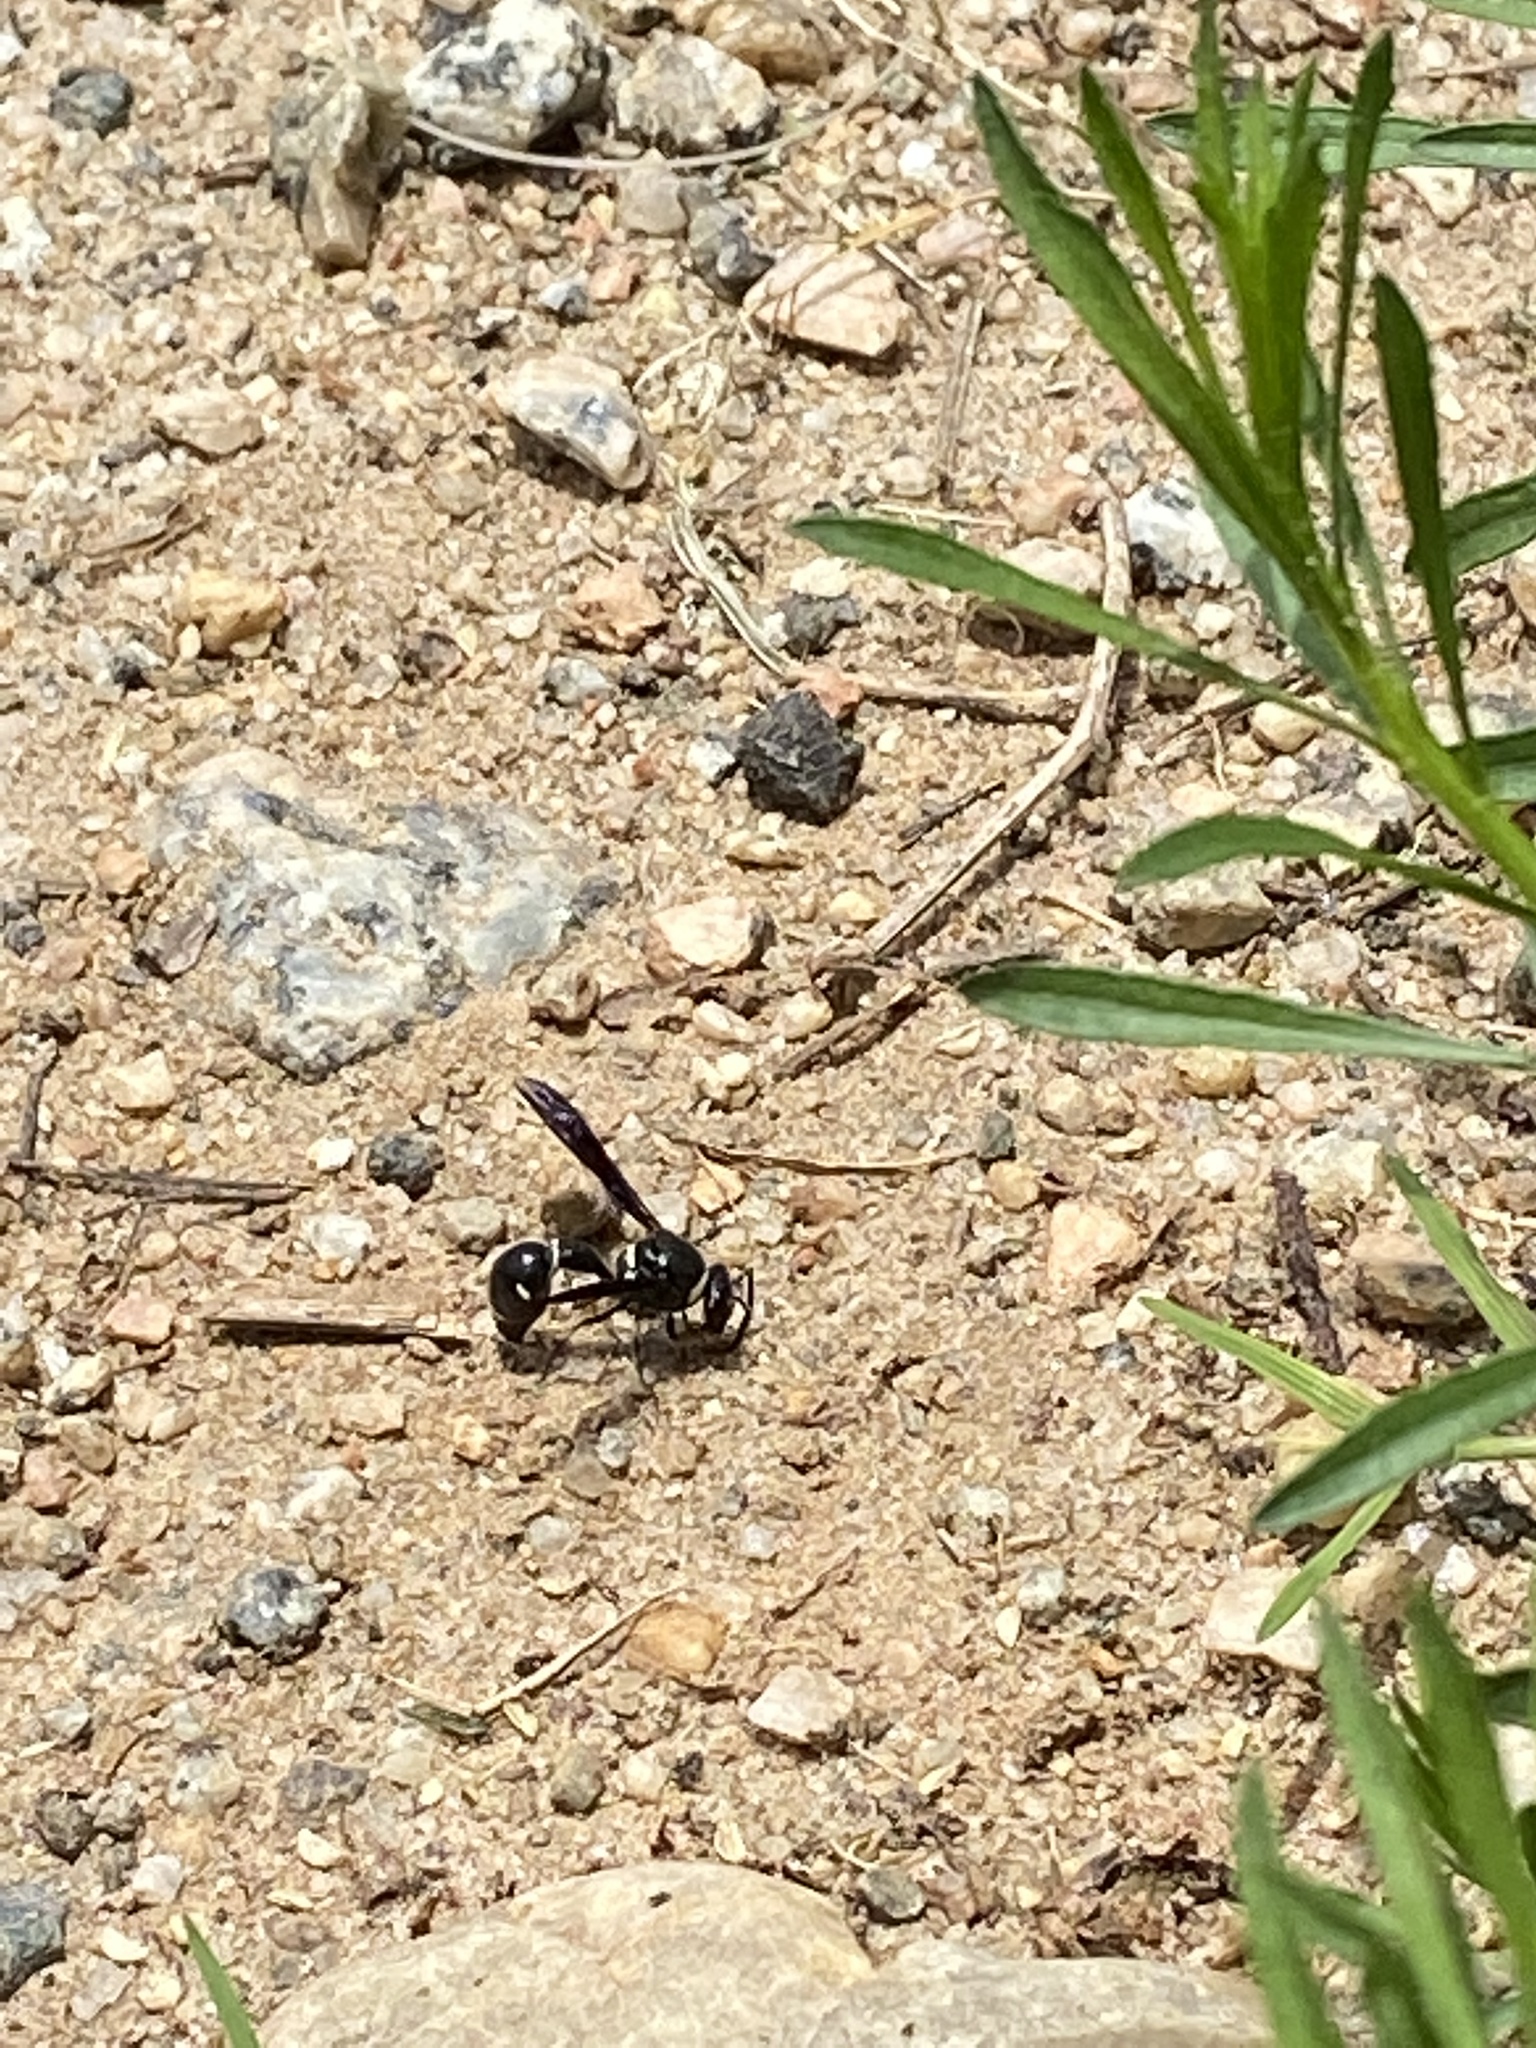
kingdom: Animalia
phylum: Arthropoda
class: Insecta
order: Hymenoptera
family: Vespidae
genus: Eumenes
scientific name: Eumenes fraternus
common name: Fraternal potter wasp
